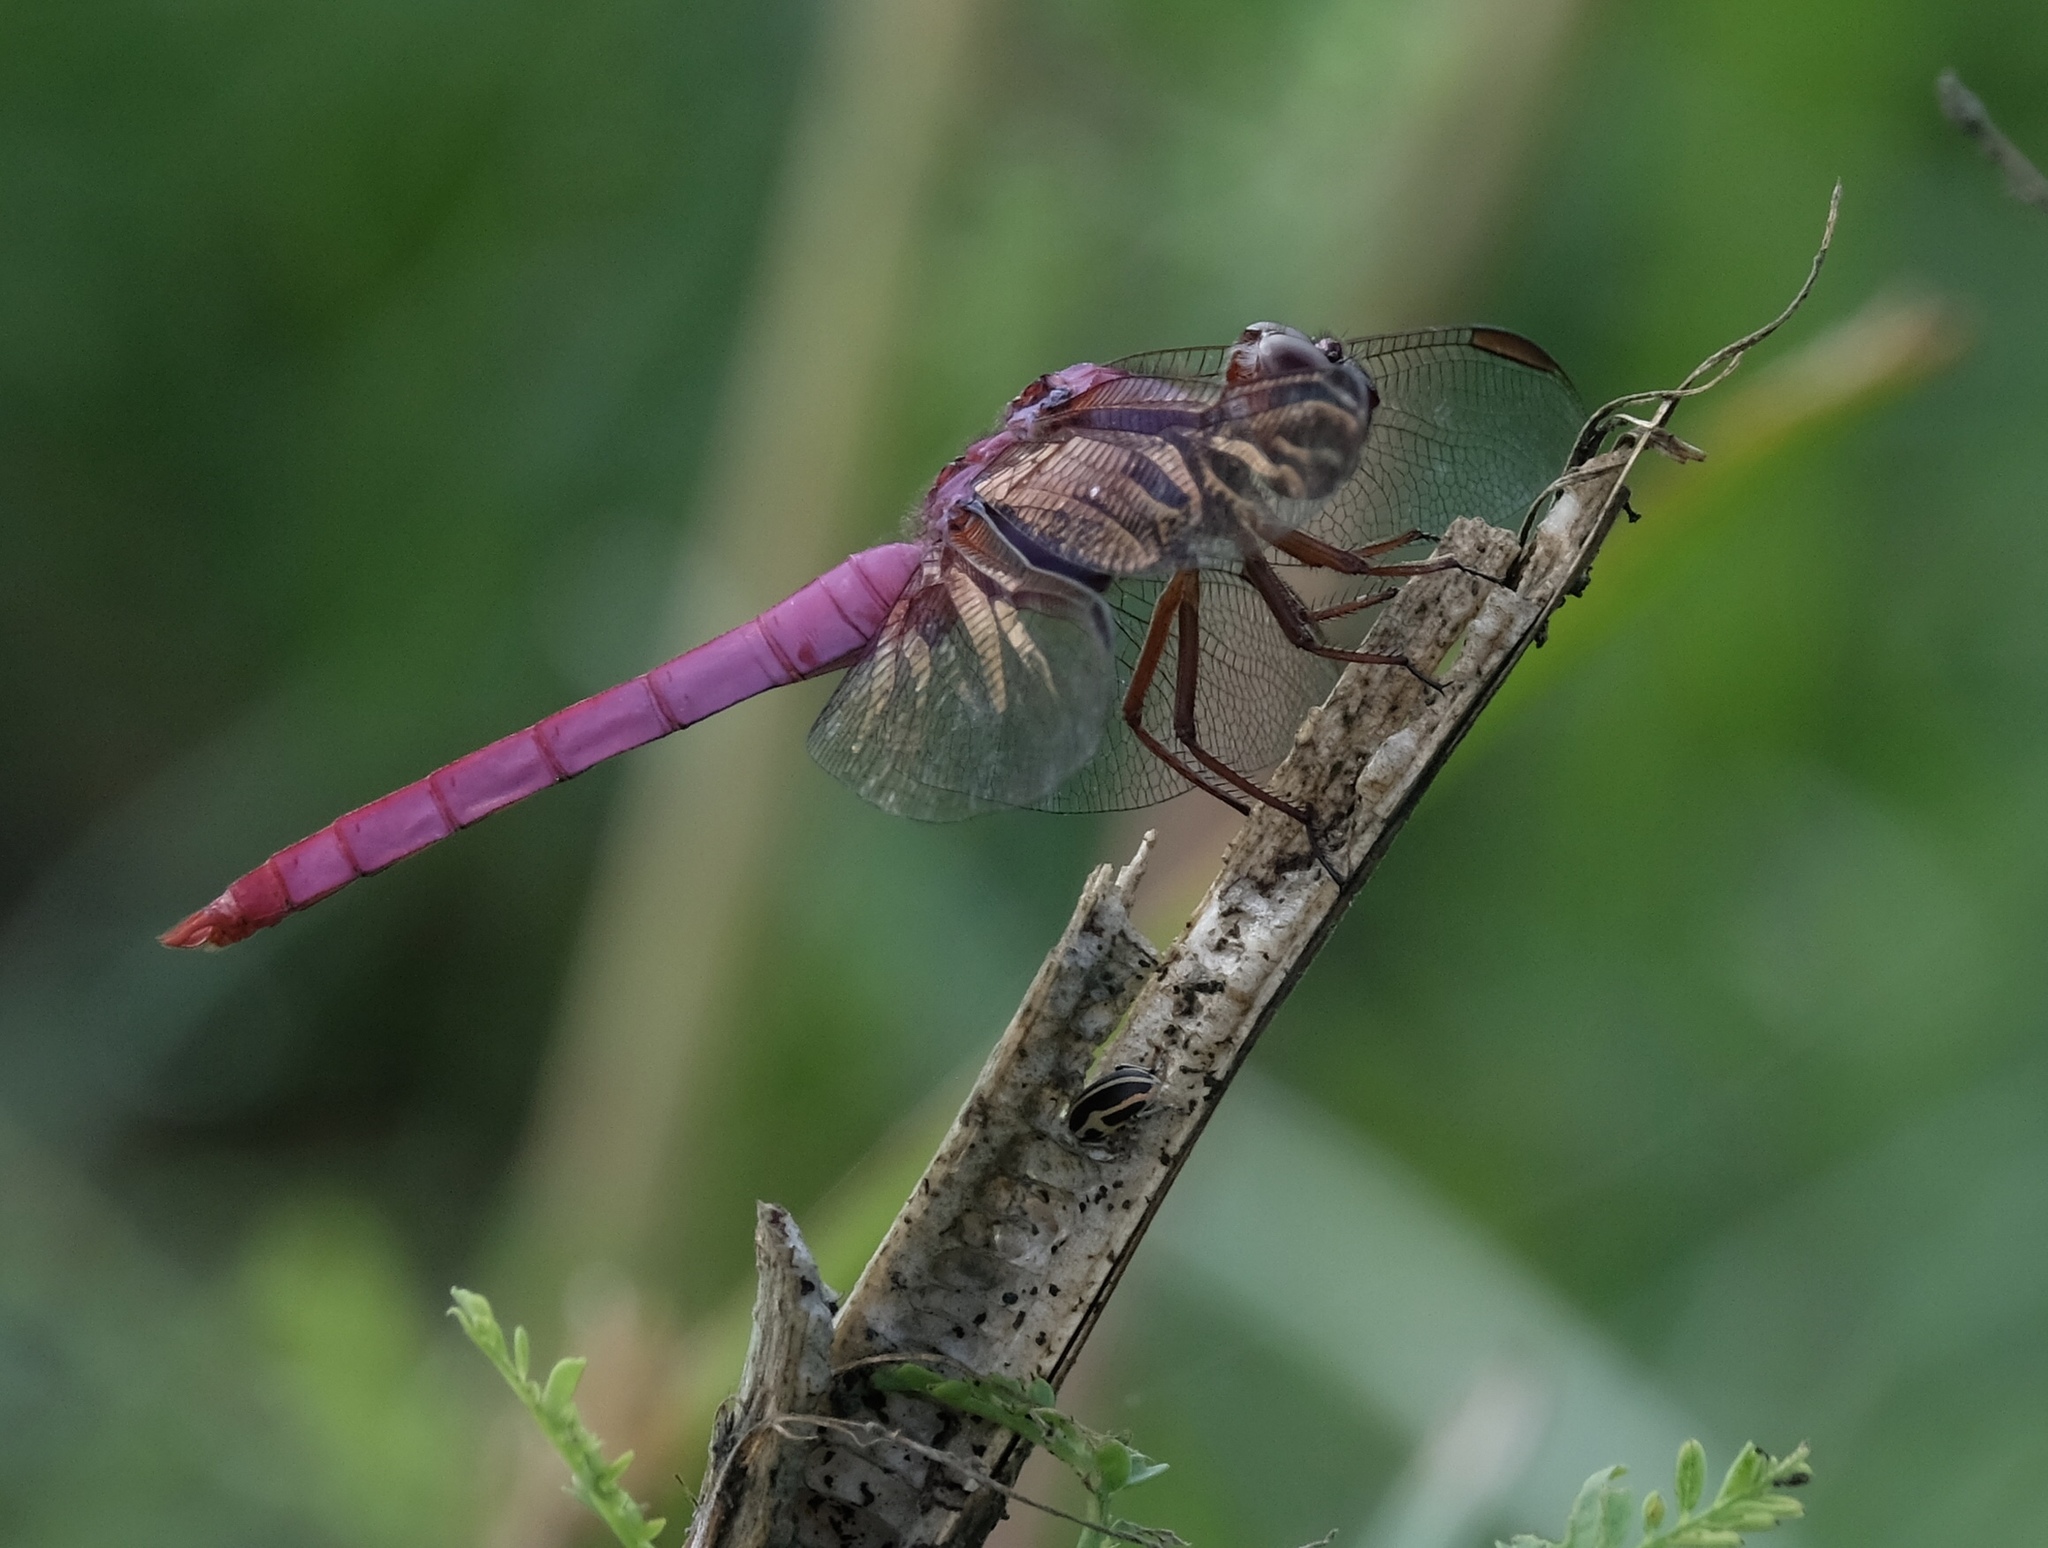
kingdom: Animalia
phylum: Arthropoda
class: Insecta
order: Odonata
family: Libellulidae
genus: Orthemis
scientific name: Orthemis ferruginea
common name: Roseate skimmer
